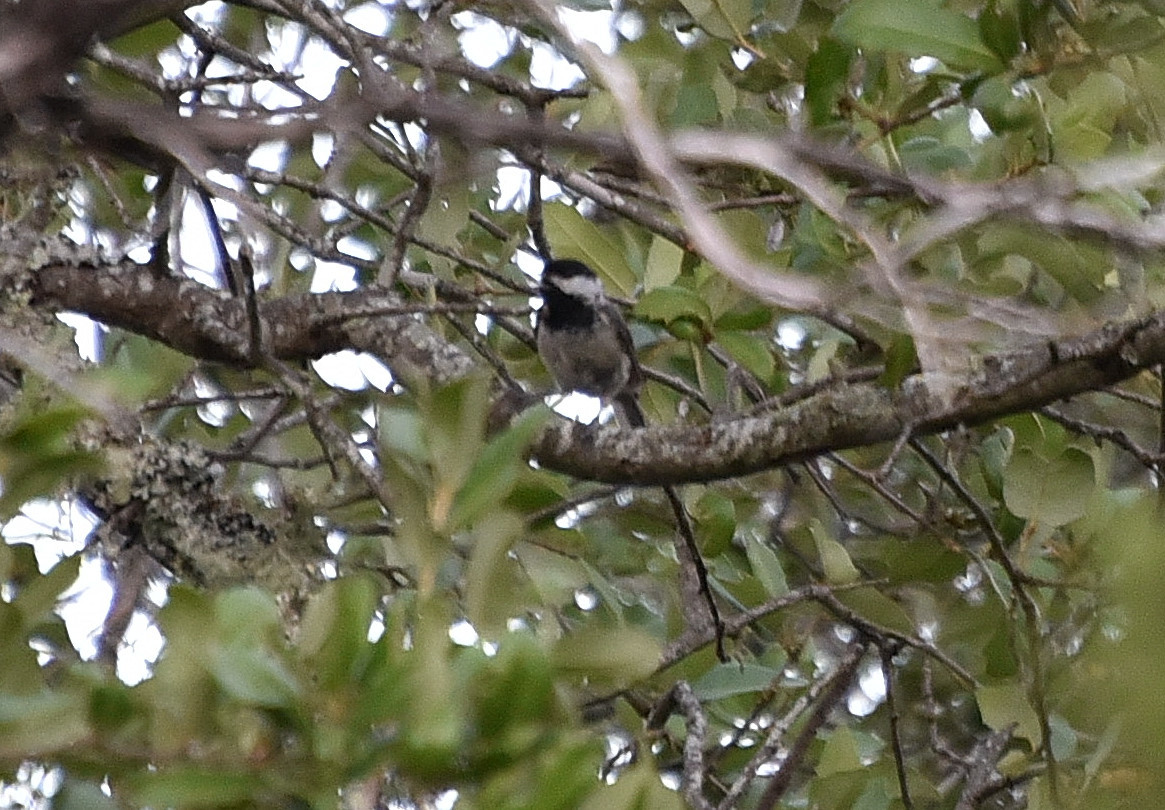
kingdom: Animalia
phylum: Chordata
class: Aves
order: Passeriformes
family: Paridae
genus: Poecile
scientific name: Poecile carolinensis
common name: Carolina chickadee
